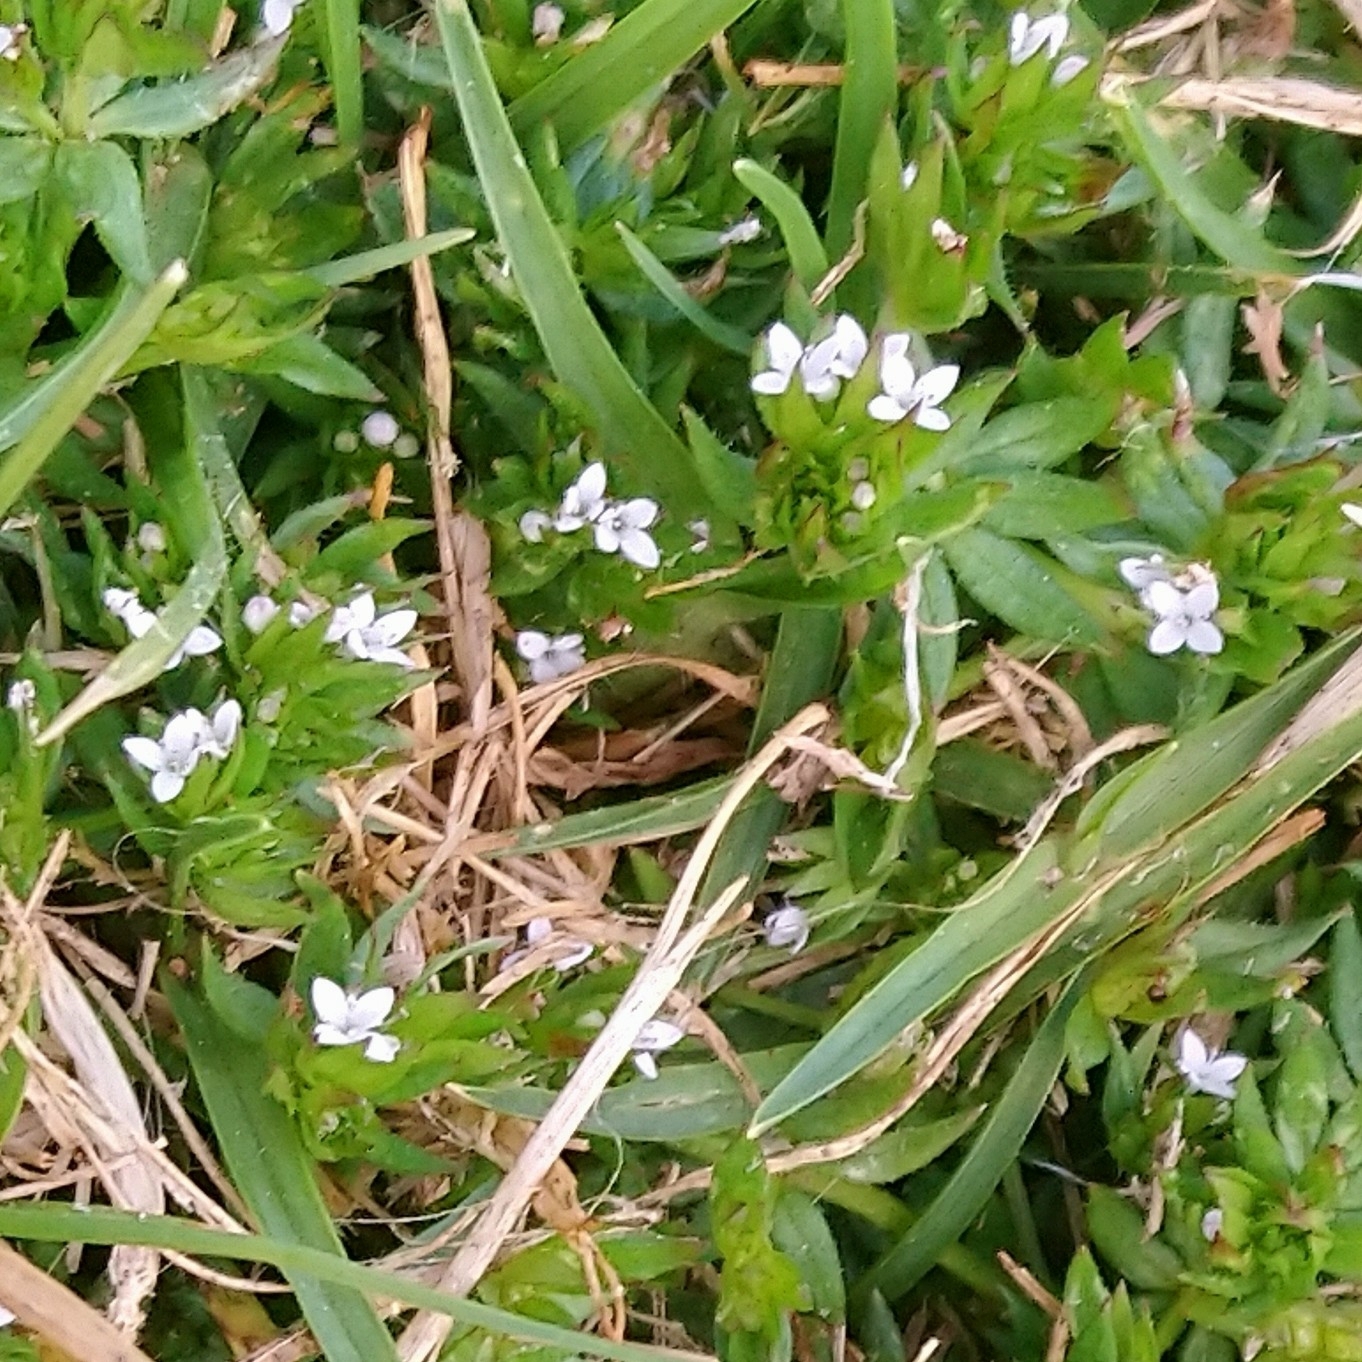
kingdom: Plantae
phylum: Tracheophyta
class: Magnoliopsida
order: Gentianales
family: Rubiaceae
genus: Sherardia
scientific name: Sherardia arvensis
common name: Field madder
